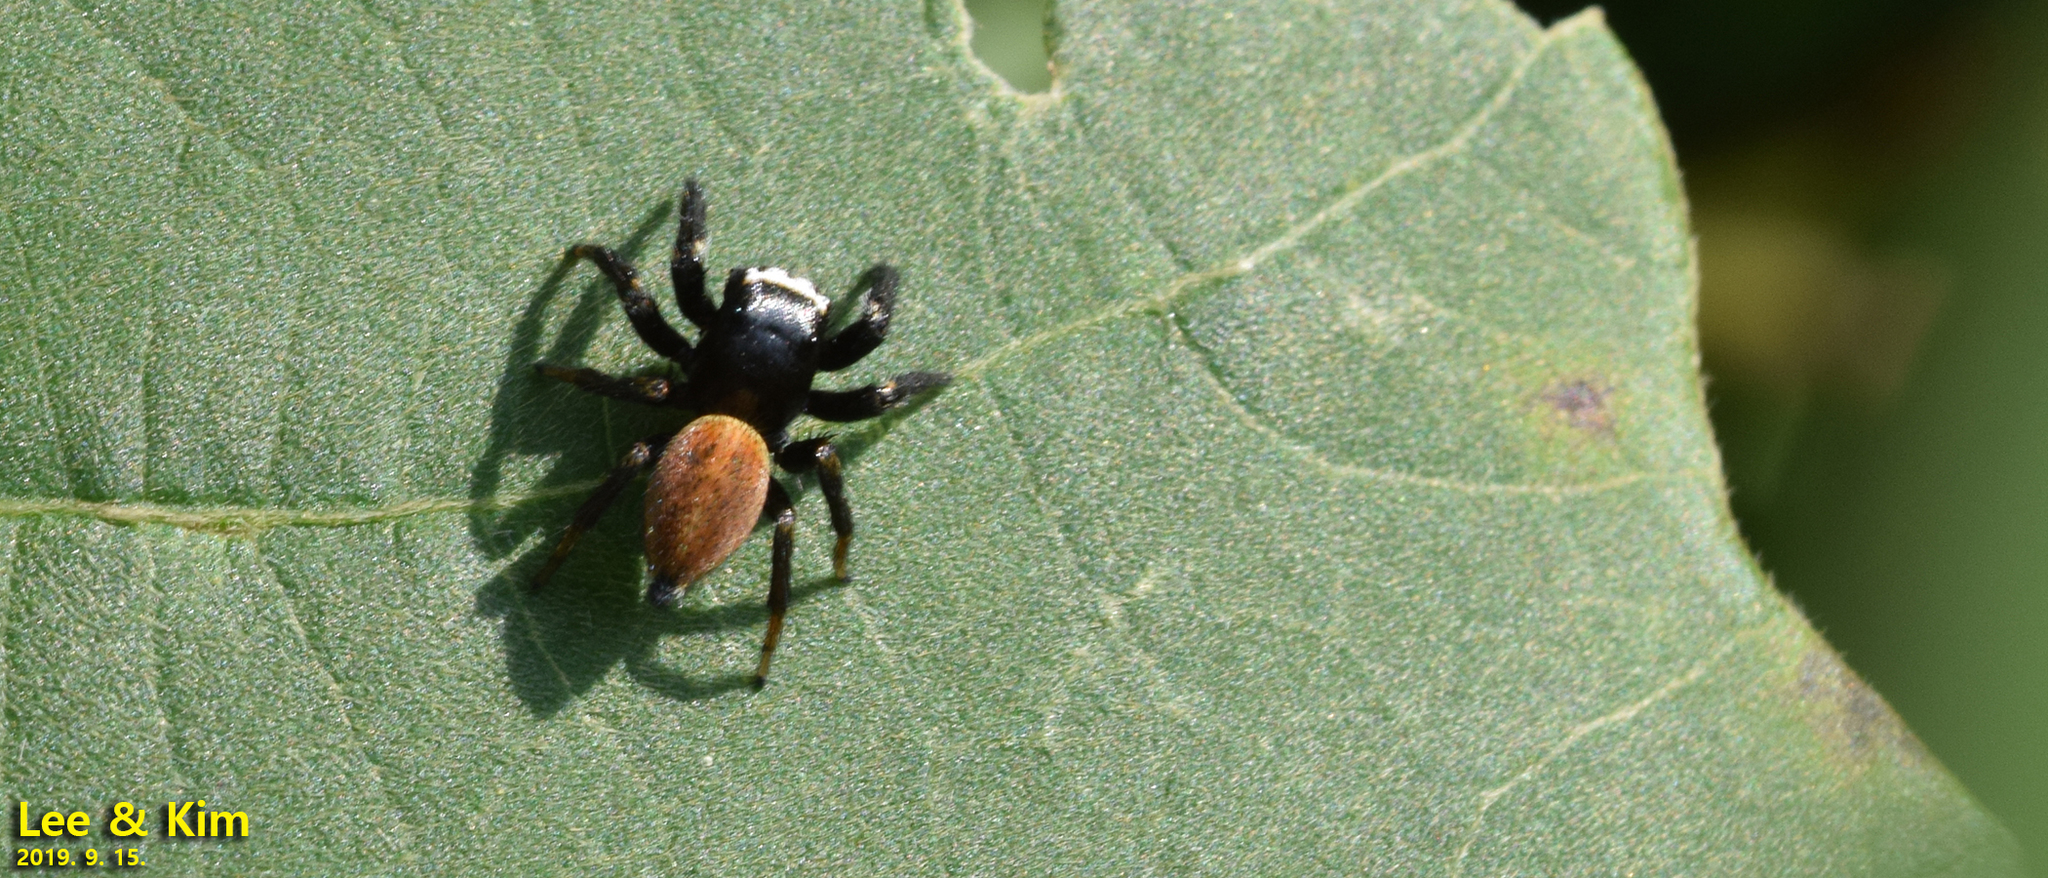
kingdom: Animalia
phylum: Arthropoda
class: Arachnida
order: Araneae
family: Salticidae
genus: Evarcha
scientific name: Evarcha albaria
